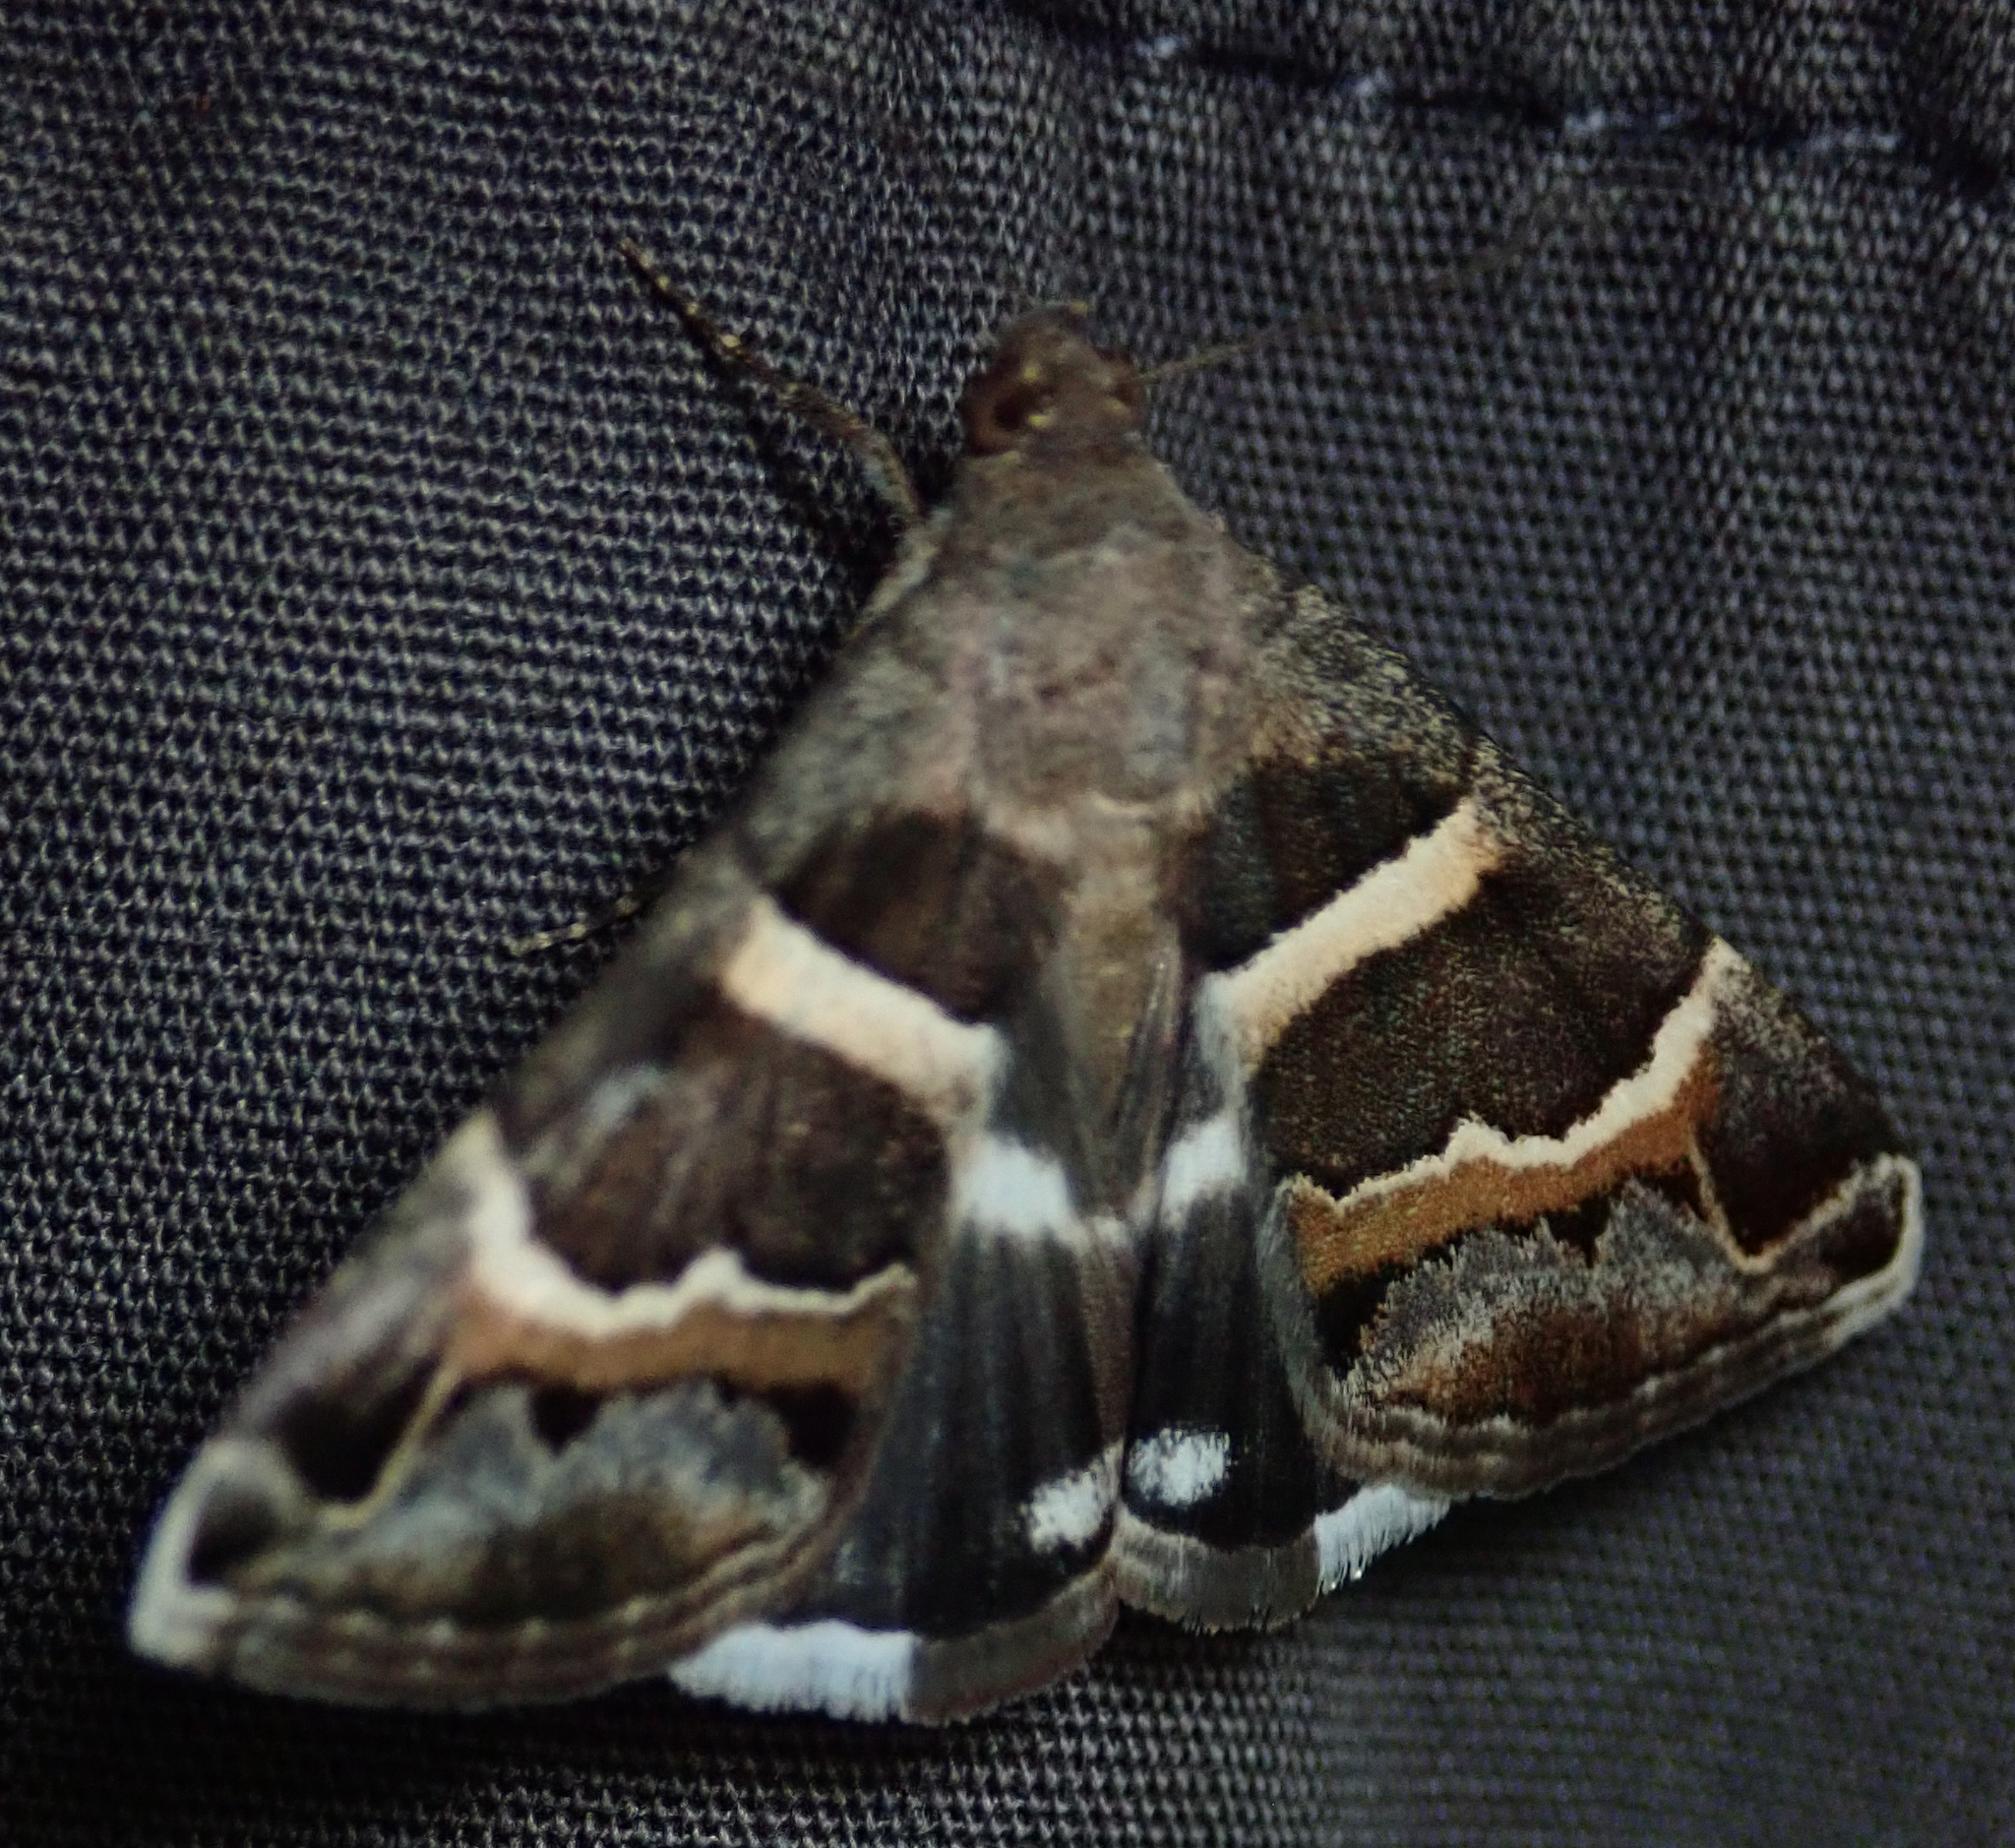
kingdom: Animalia
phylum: Arthropoda
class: Insecta
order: Lepidoptera
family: Erebidae
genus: Grammodes
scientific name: Grammodes stolida
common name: Geometrician
